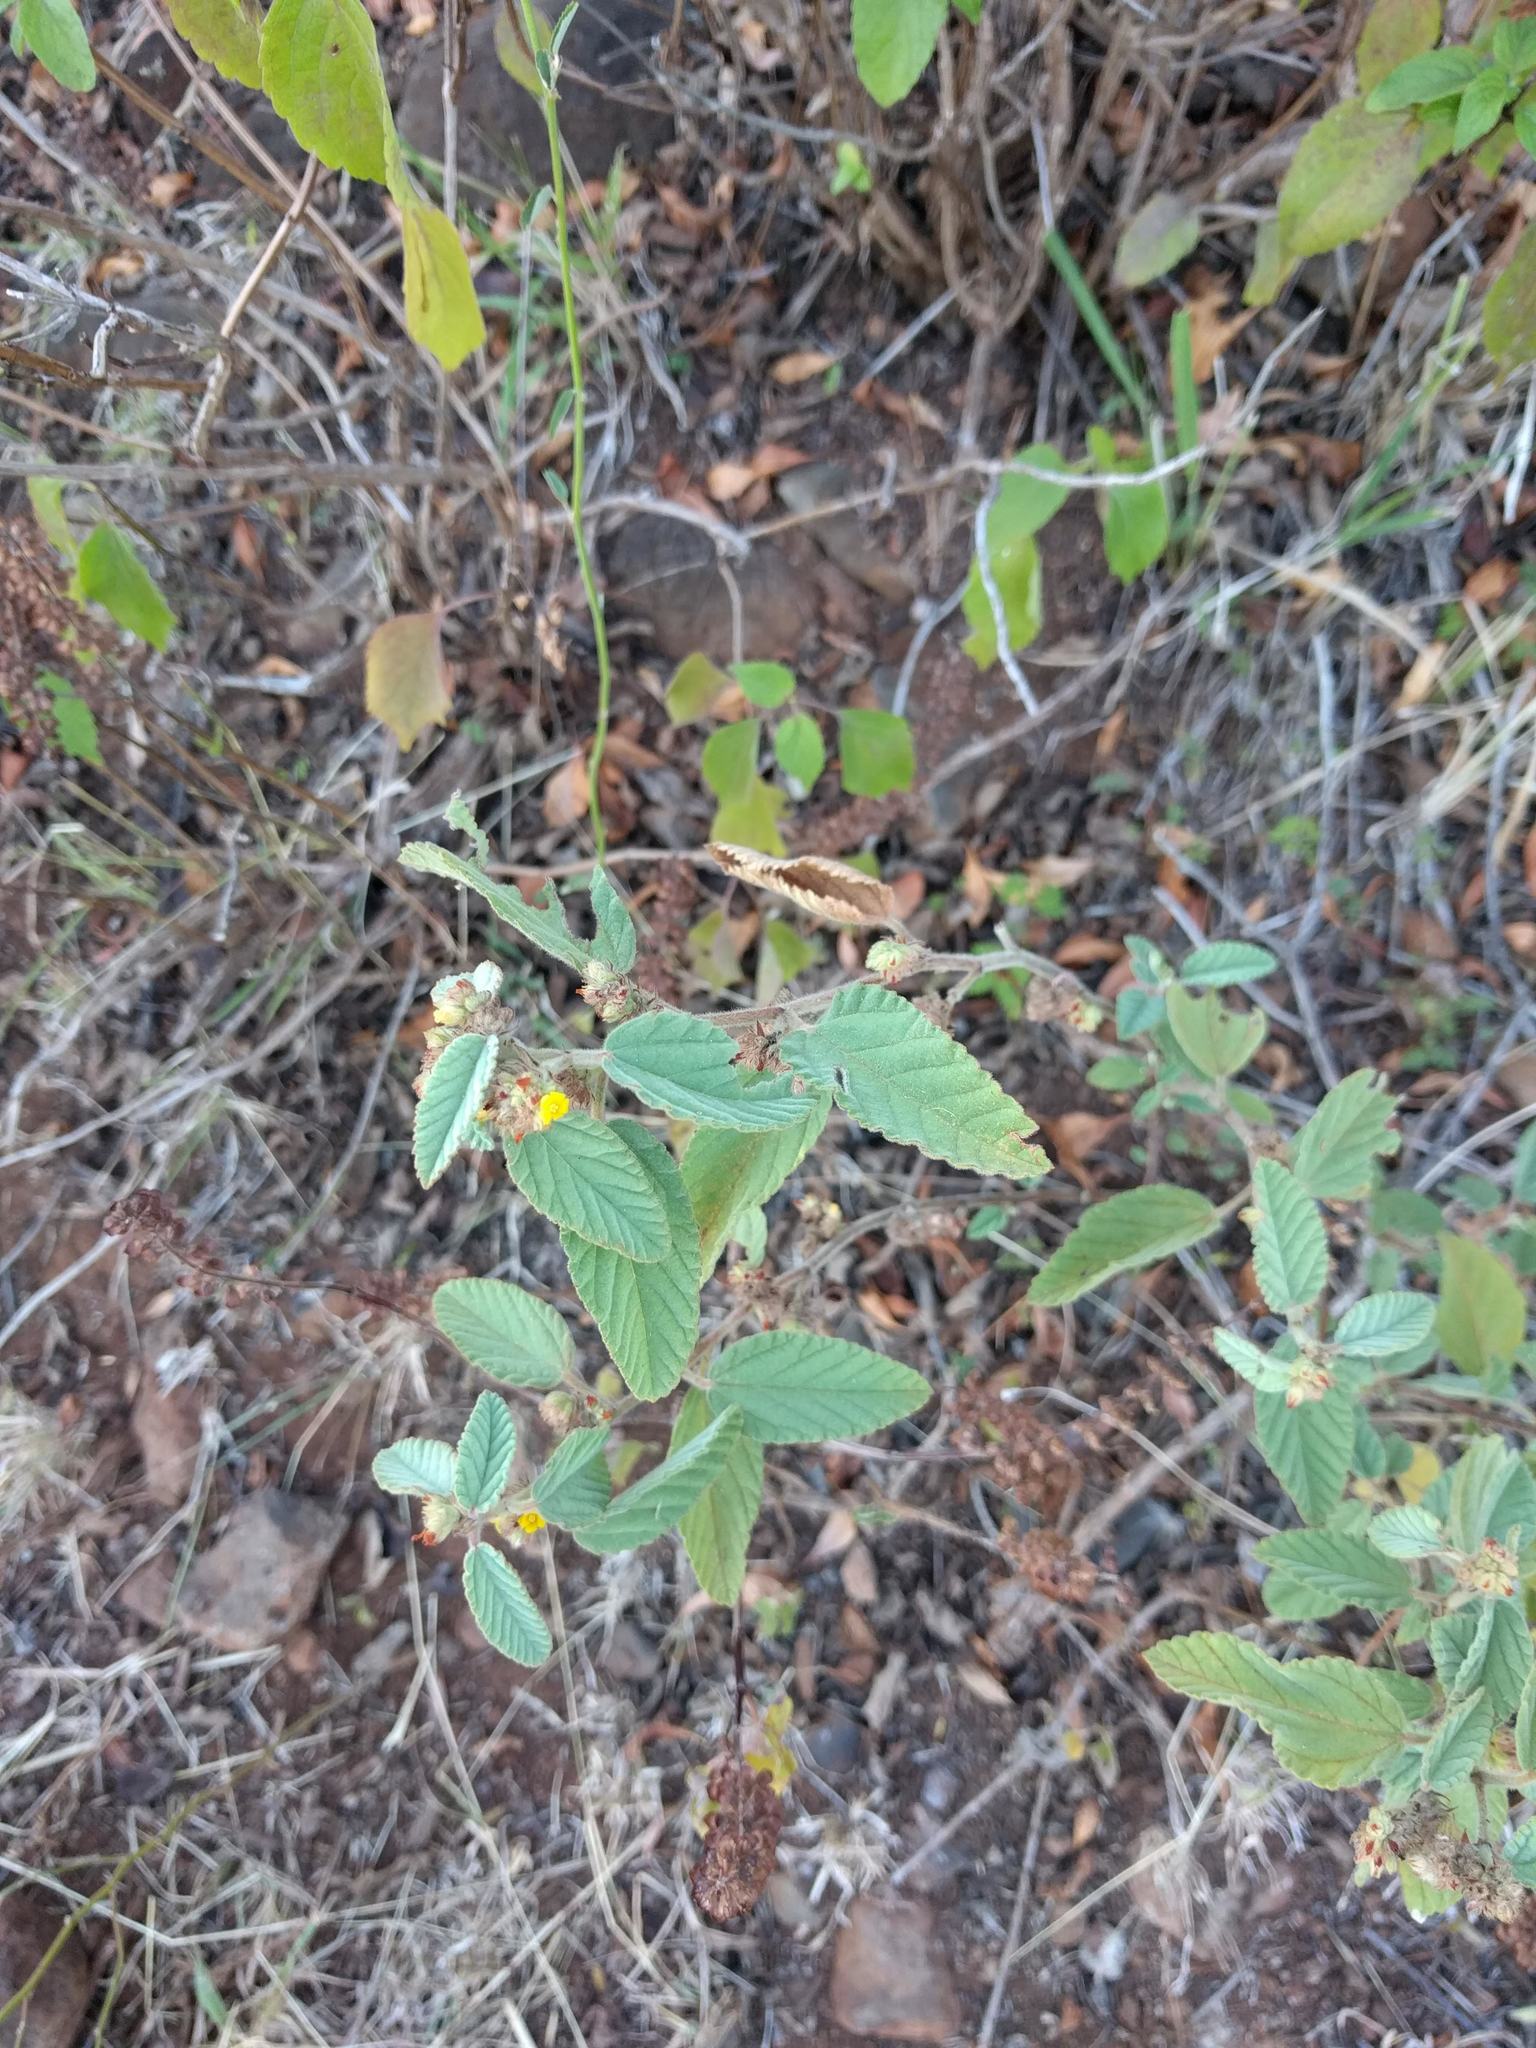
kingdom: Plantae
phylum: Tracheophyta
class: Magnoliopsida
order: Malvales
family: Malvaceae
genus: Waltheria
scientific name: Waltheria indica
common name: Leather-coat
